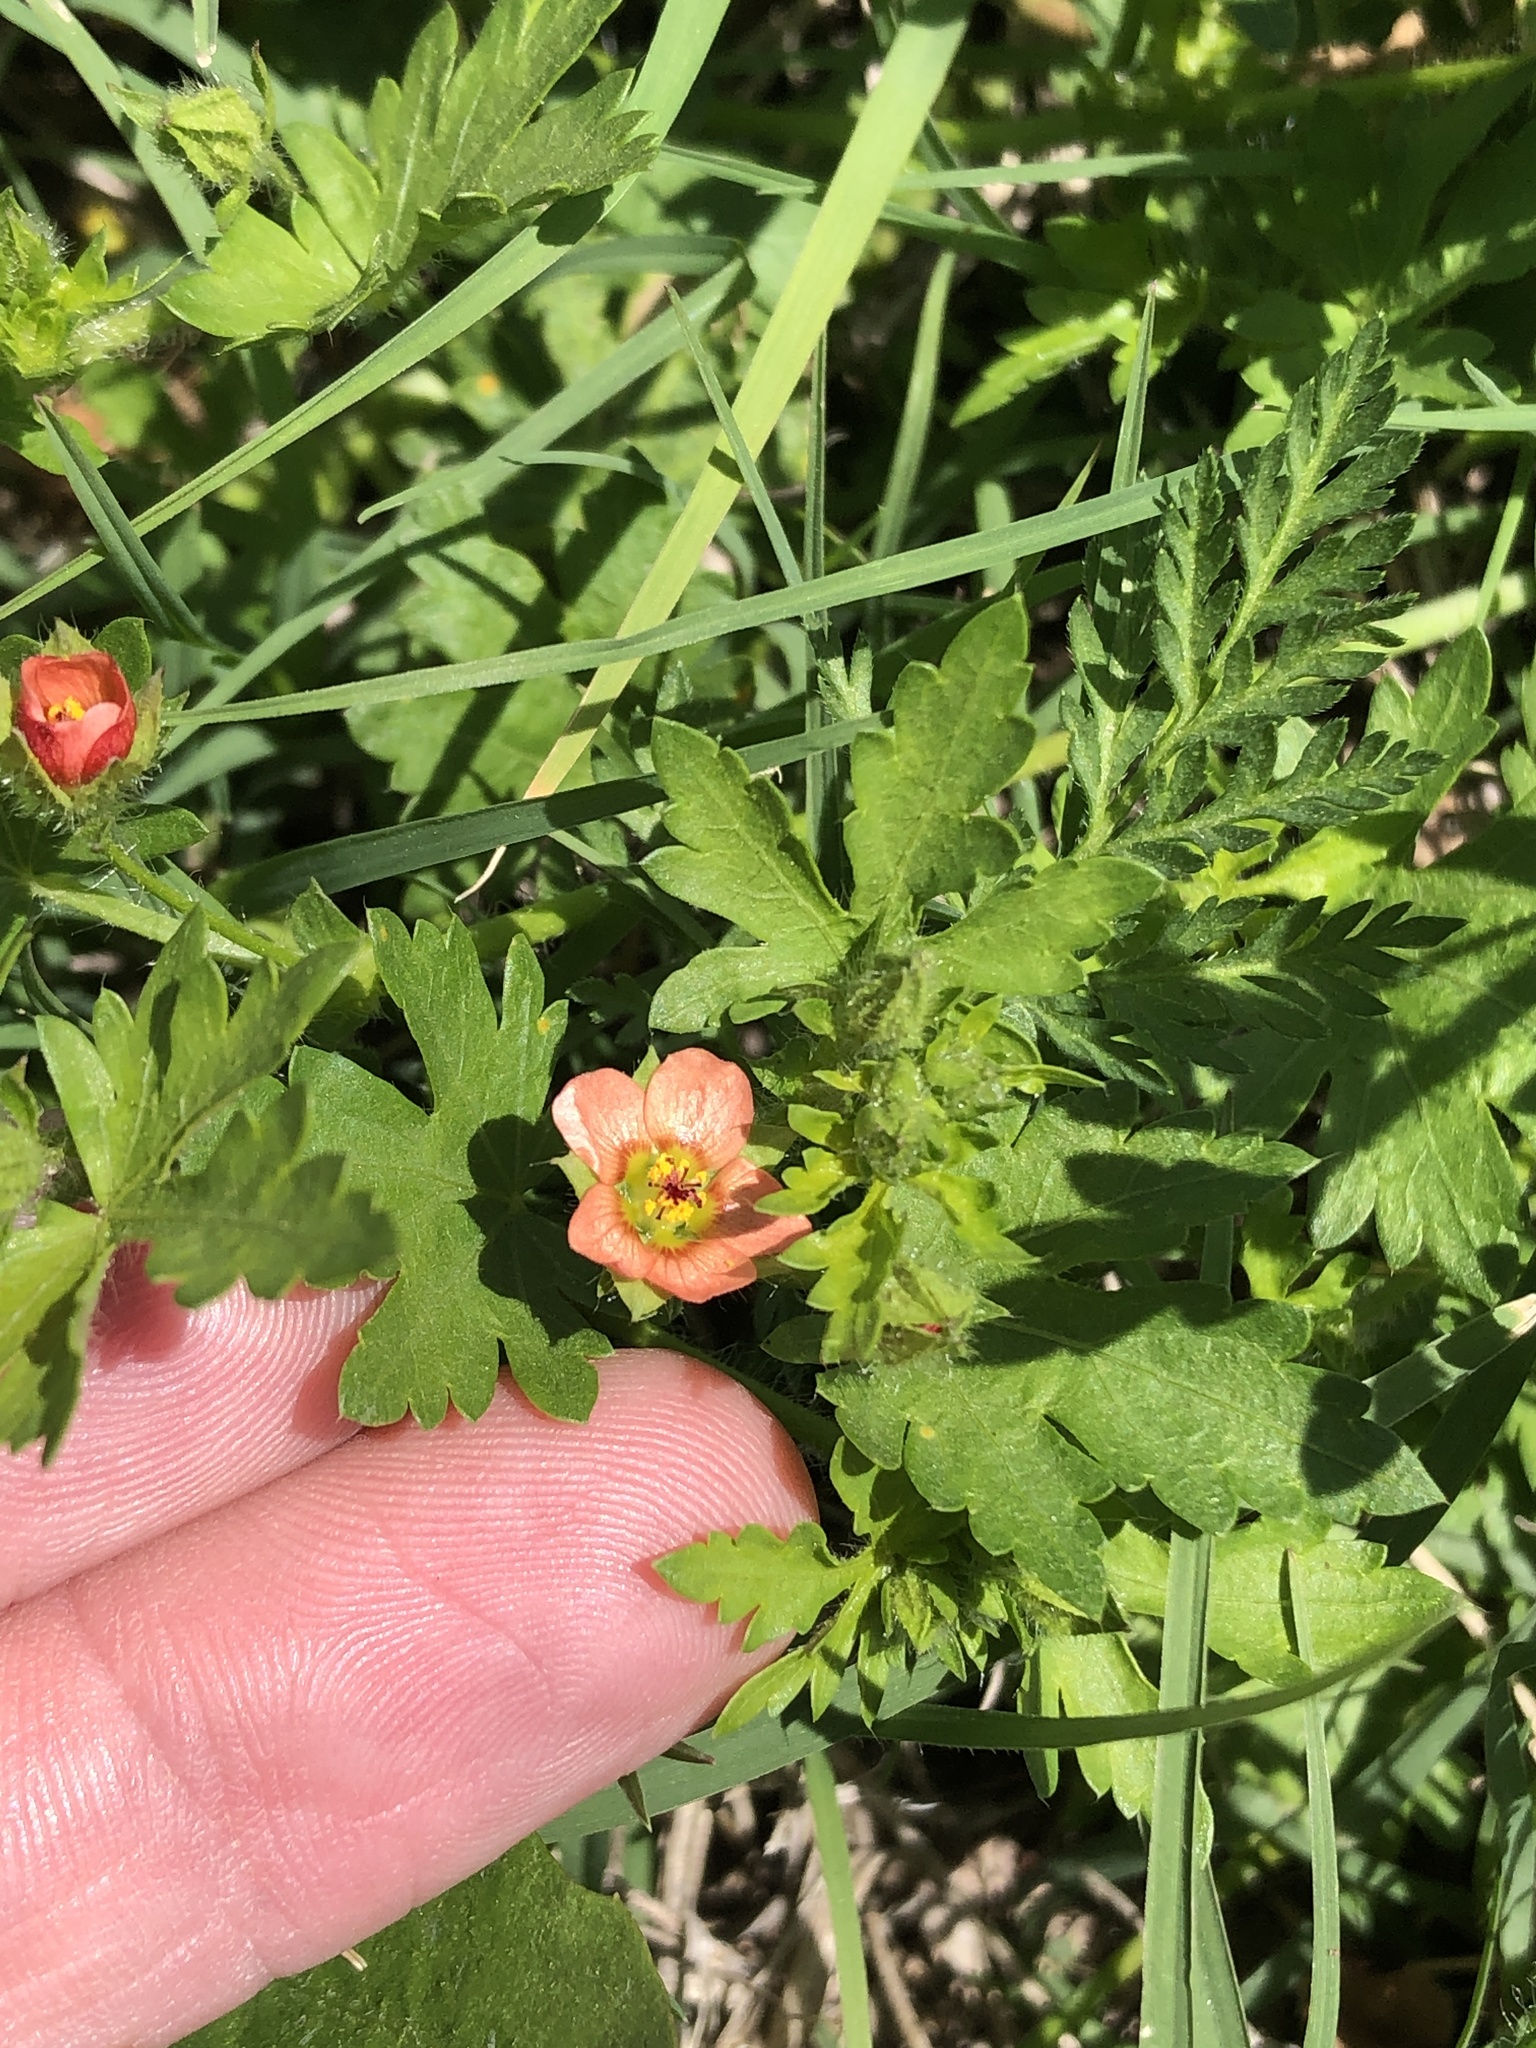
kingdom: Plantae
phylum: Tracheophyta
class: Magnoliopsida
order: Malvales
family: Malvaceae
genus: Modiola
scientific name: Modiola caroliniana
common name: Carolina bristlemallow
